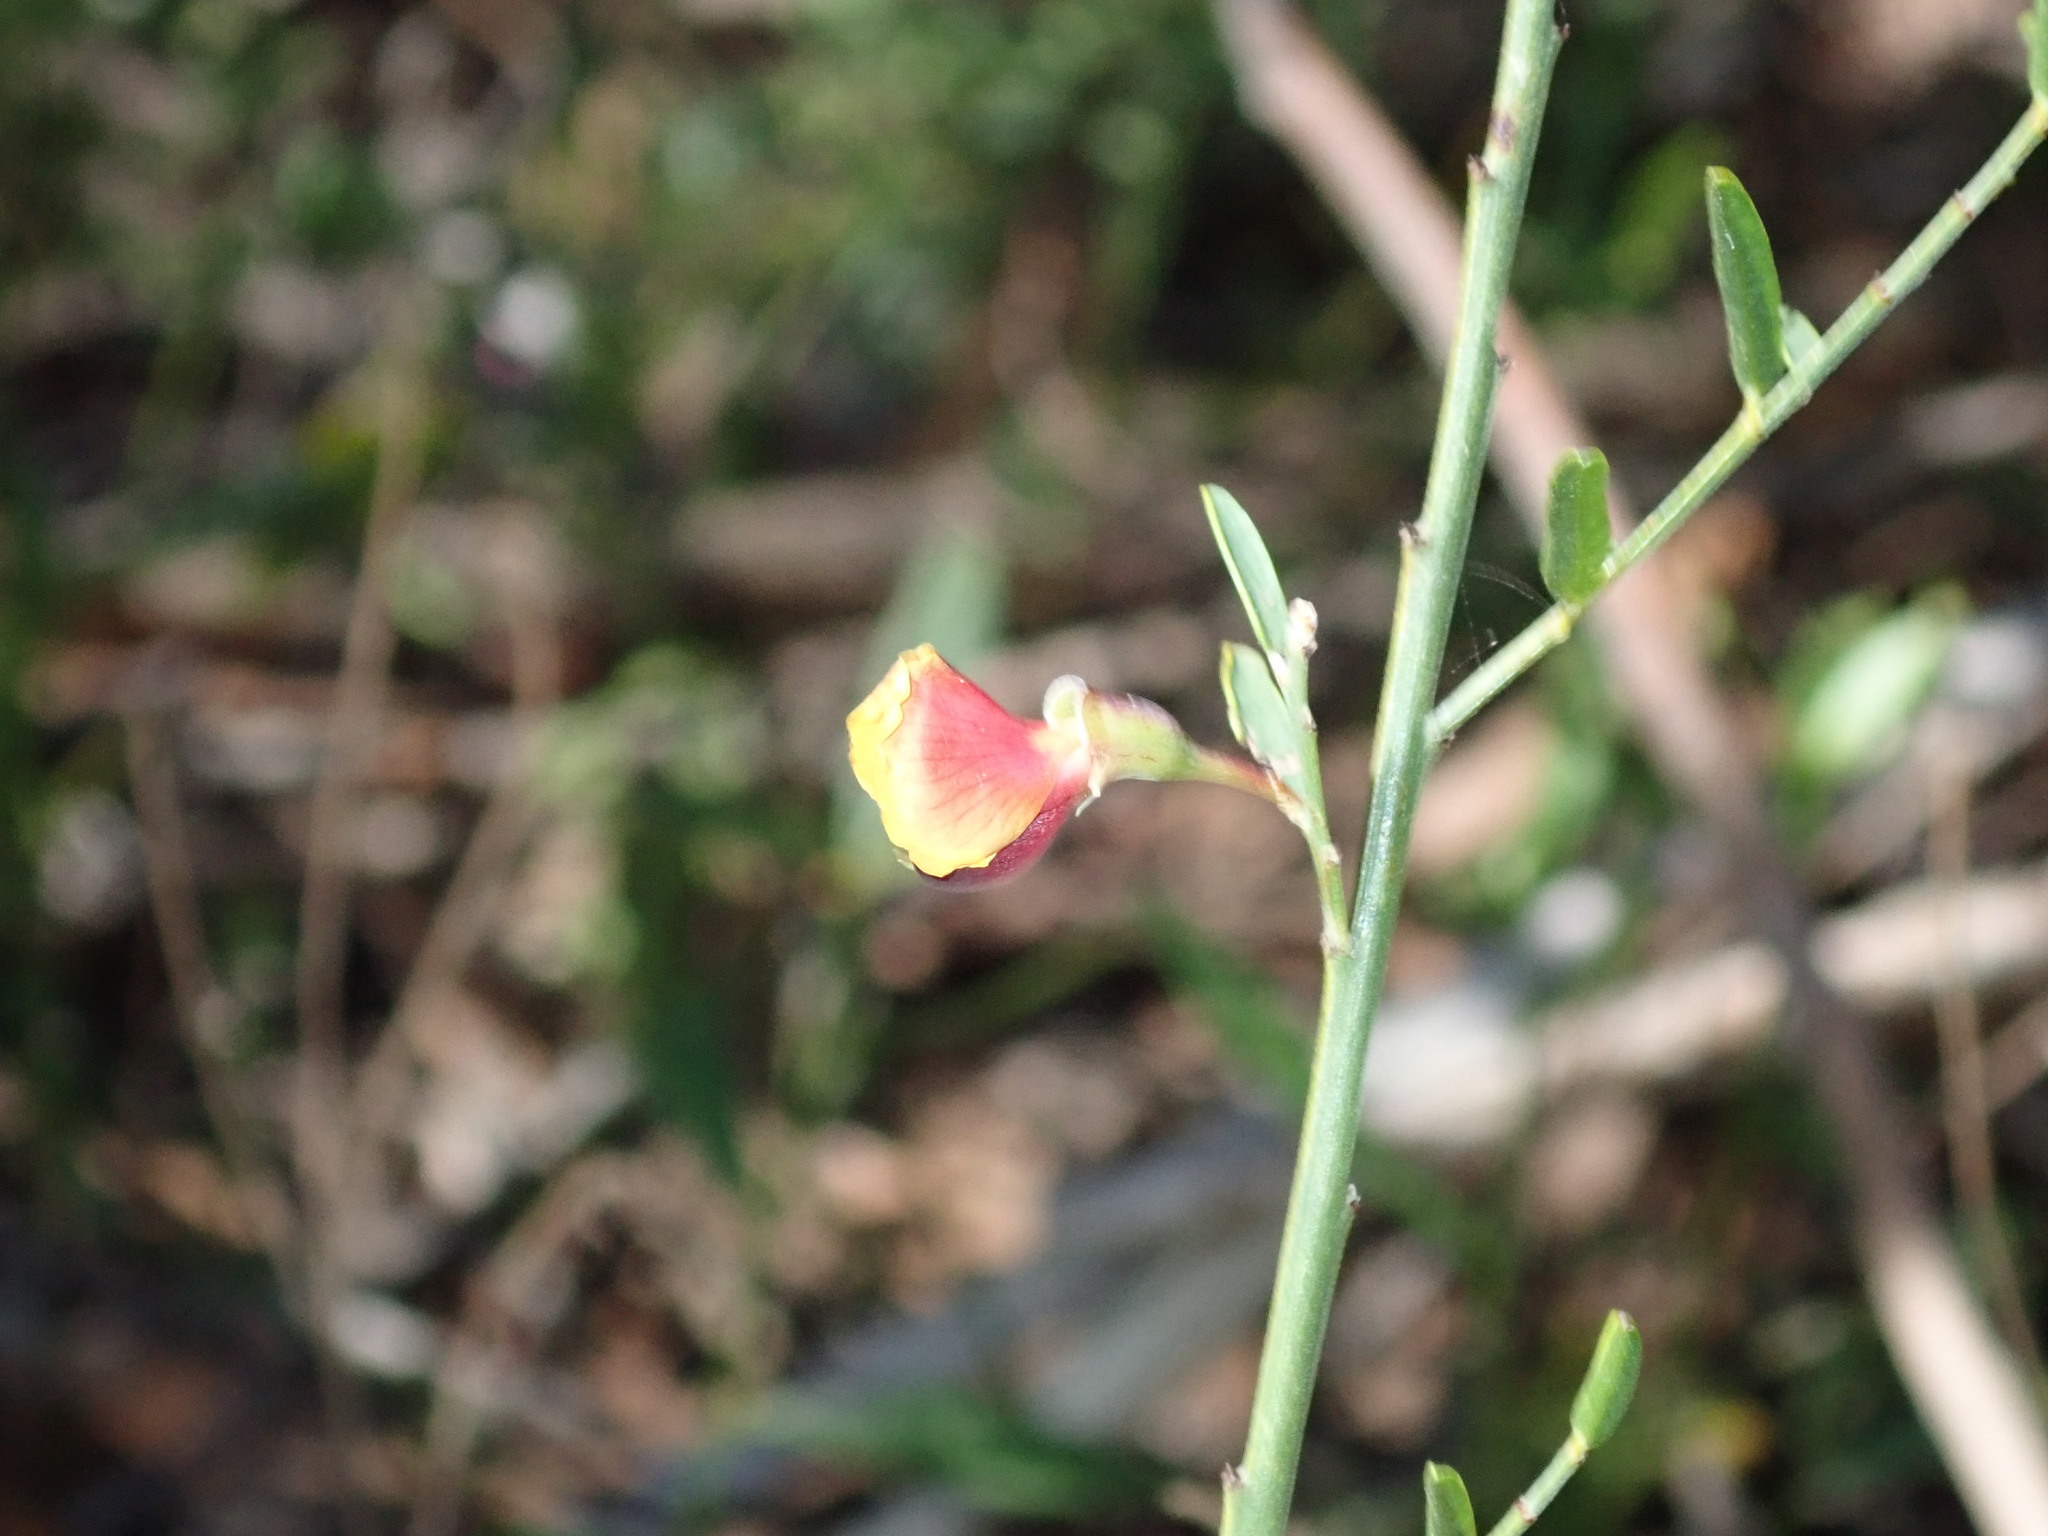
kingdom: Plantae
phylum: Tracheophyta
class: Magnoliopsida
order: Fabales
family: Fabaceae
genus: Bossiaea
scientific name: Bossiaea heterophylla
